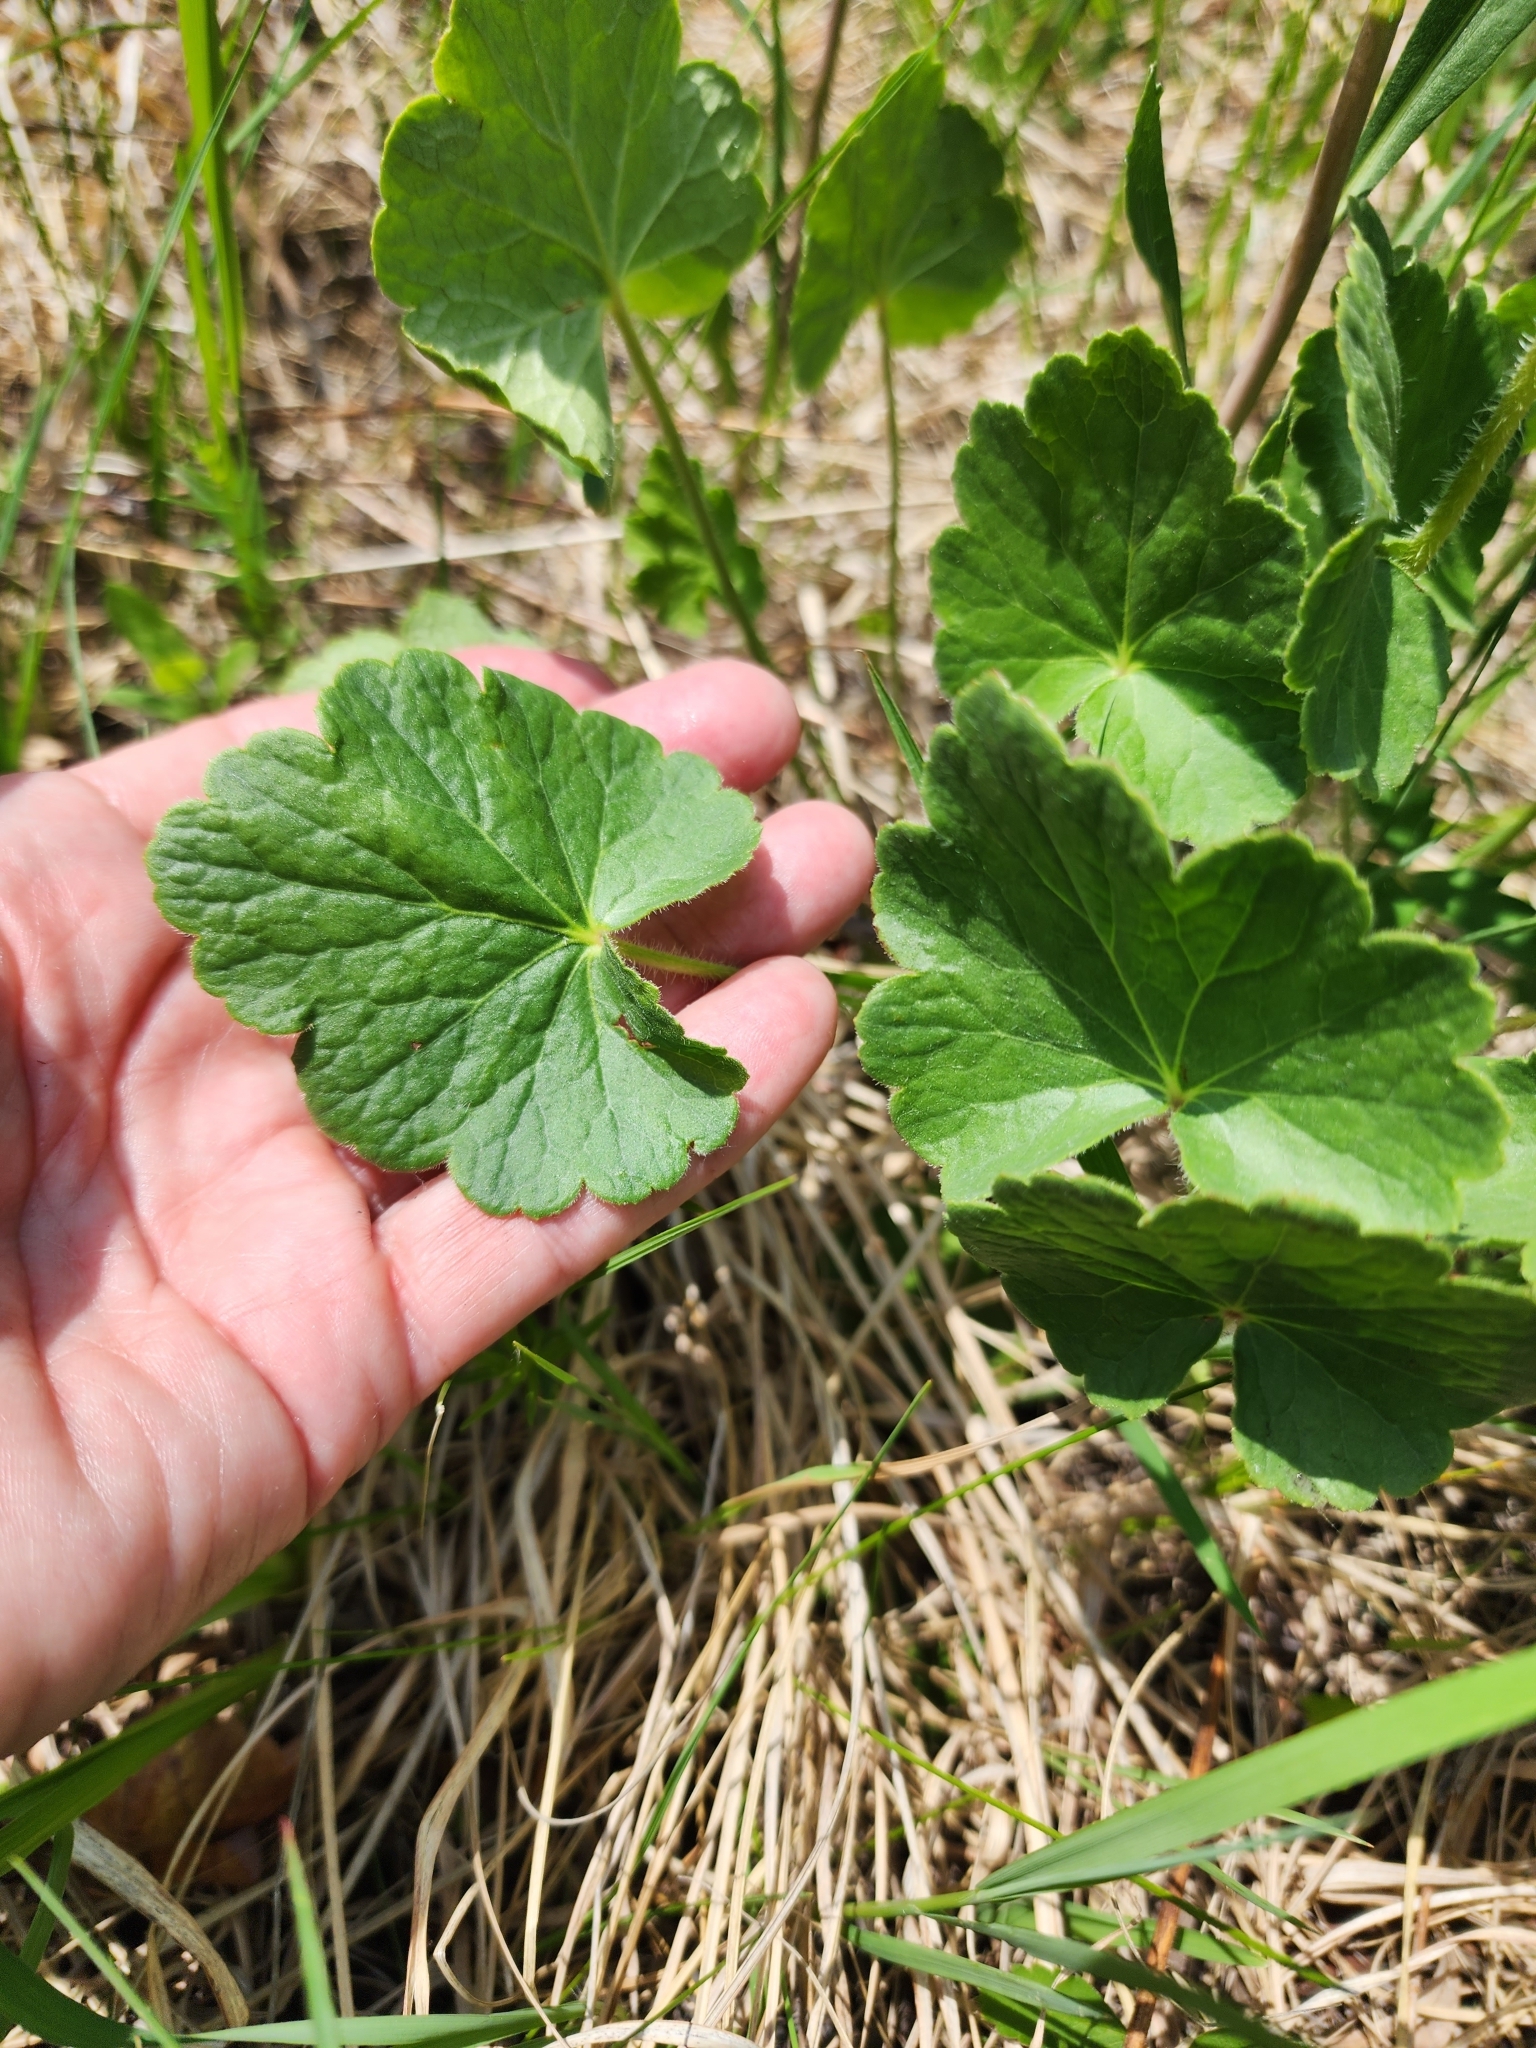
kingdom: Plantae
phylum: Tracheophyta
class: Magnoliopsida
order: Saxifragales
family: Saxifragaceae
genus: Heuchera
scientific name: Heuchera richardsonii
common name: Richardson's alumroot
